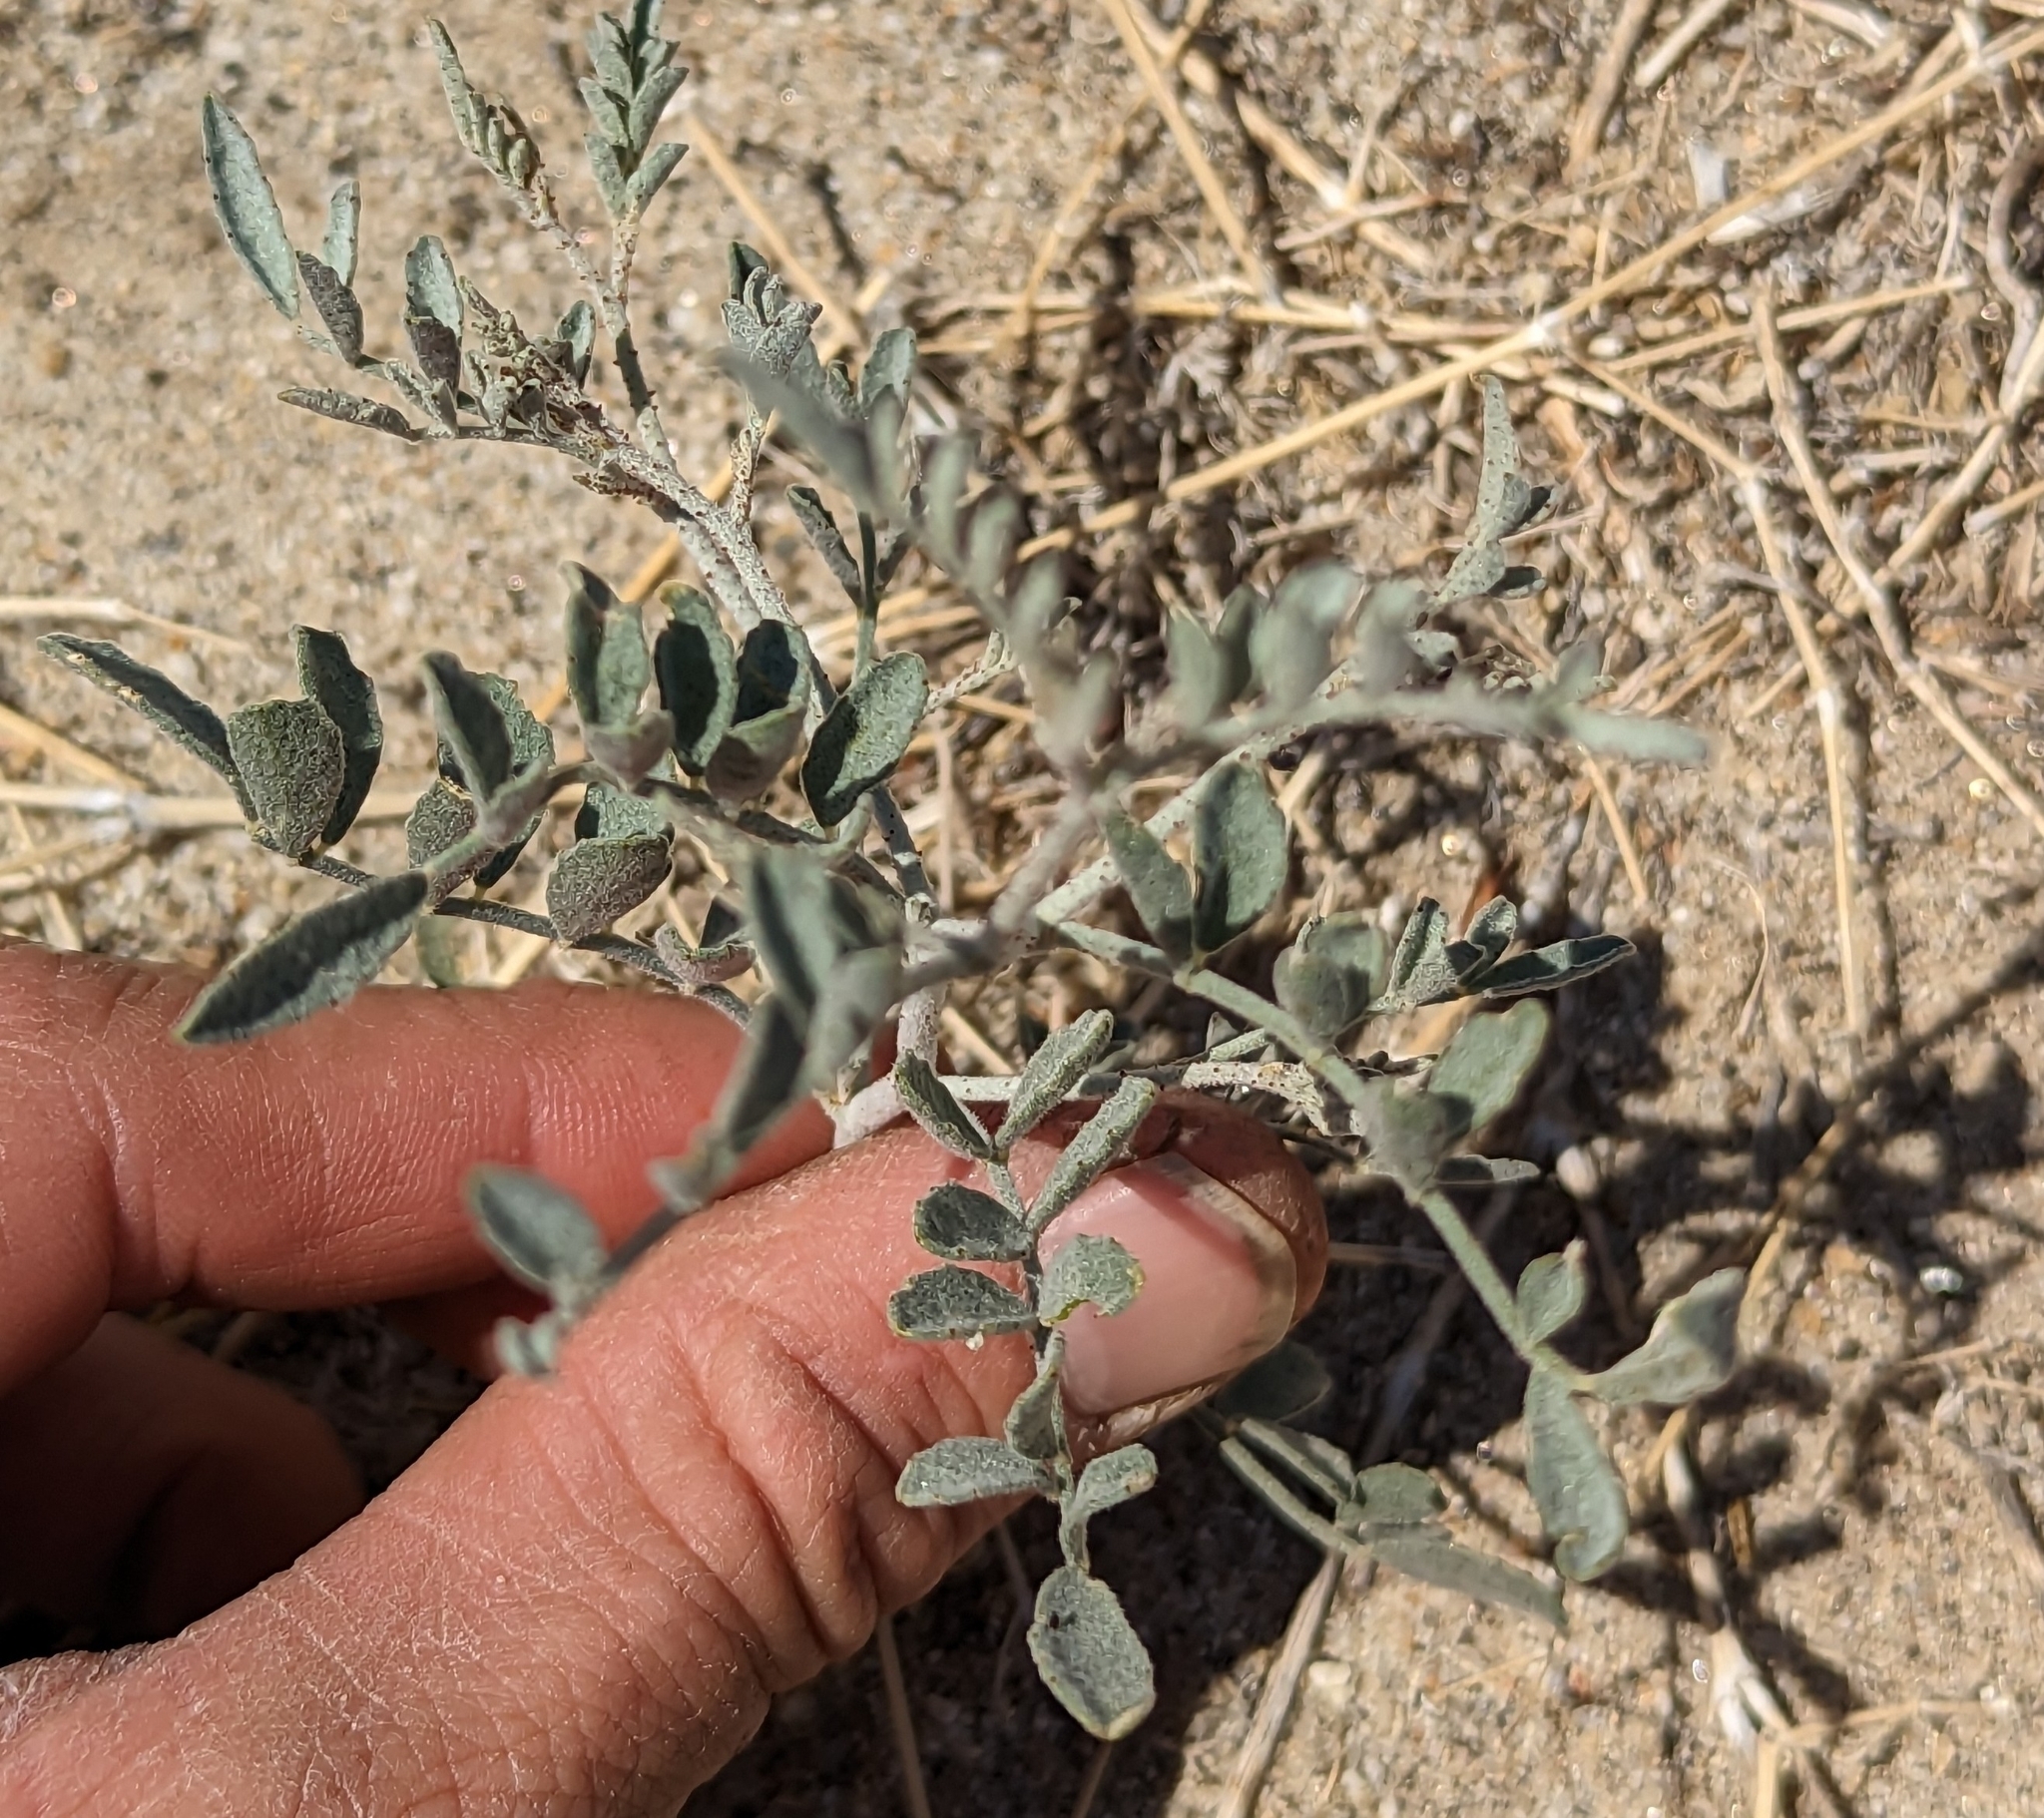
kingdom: Plantae
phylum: Tracheophyta
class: Magnoliopsida
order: Fabales
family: Fabaceae
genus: Psorothamnus
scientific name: Psorothamnus emoryi
